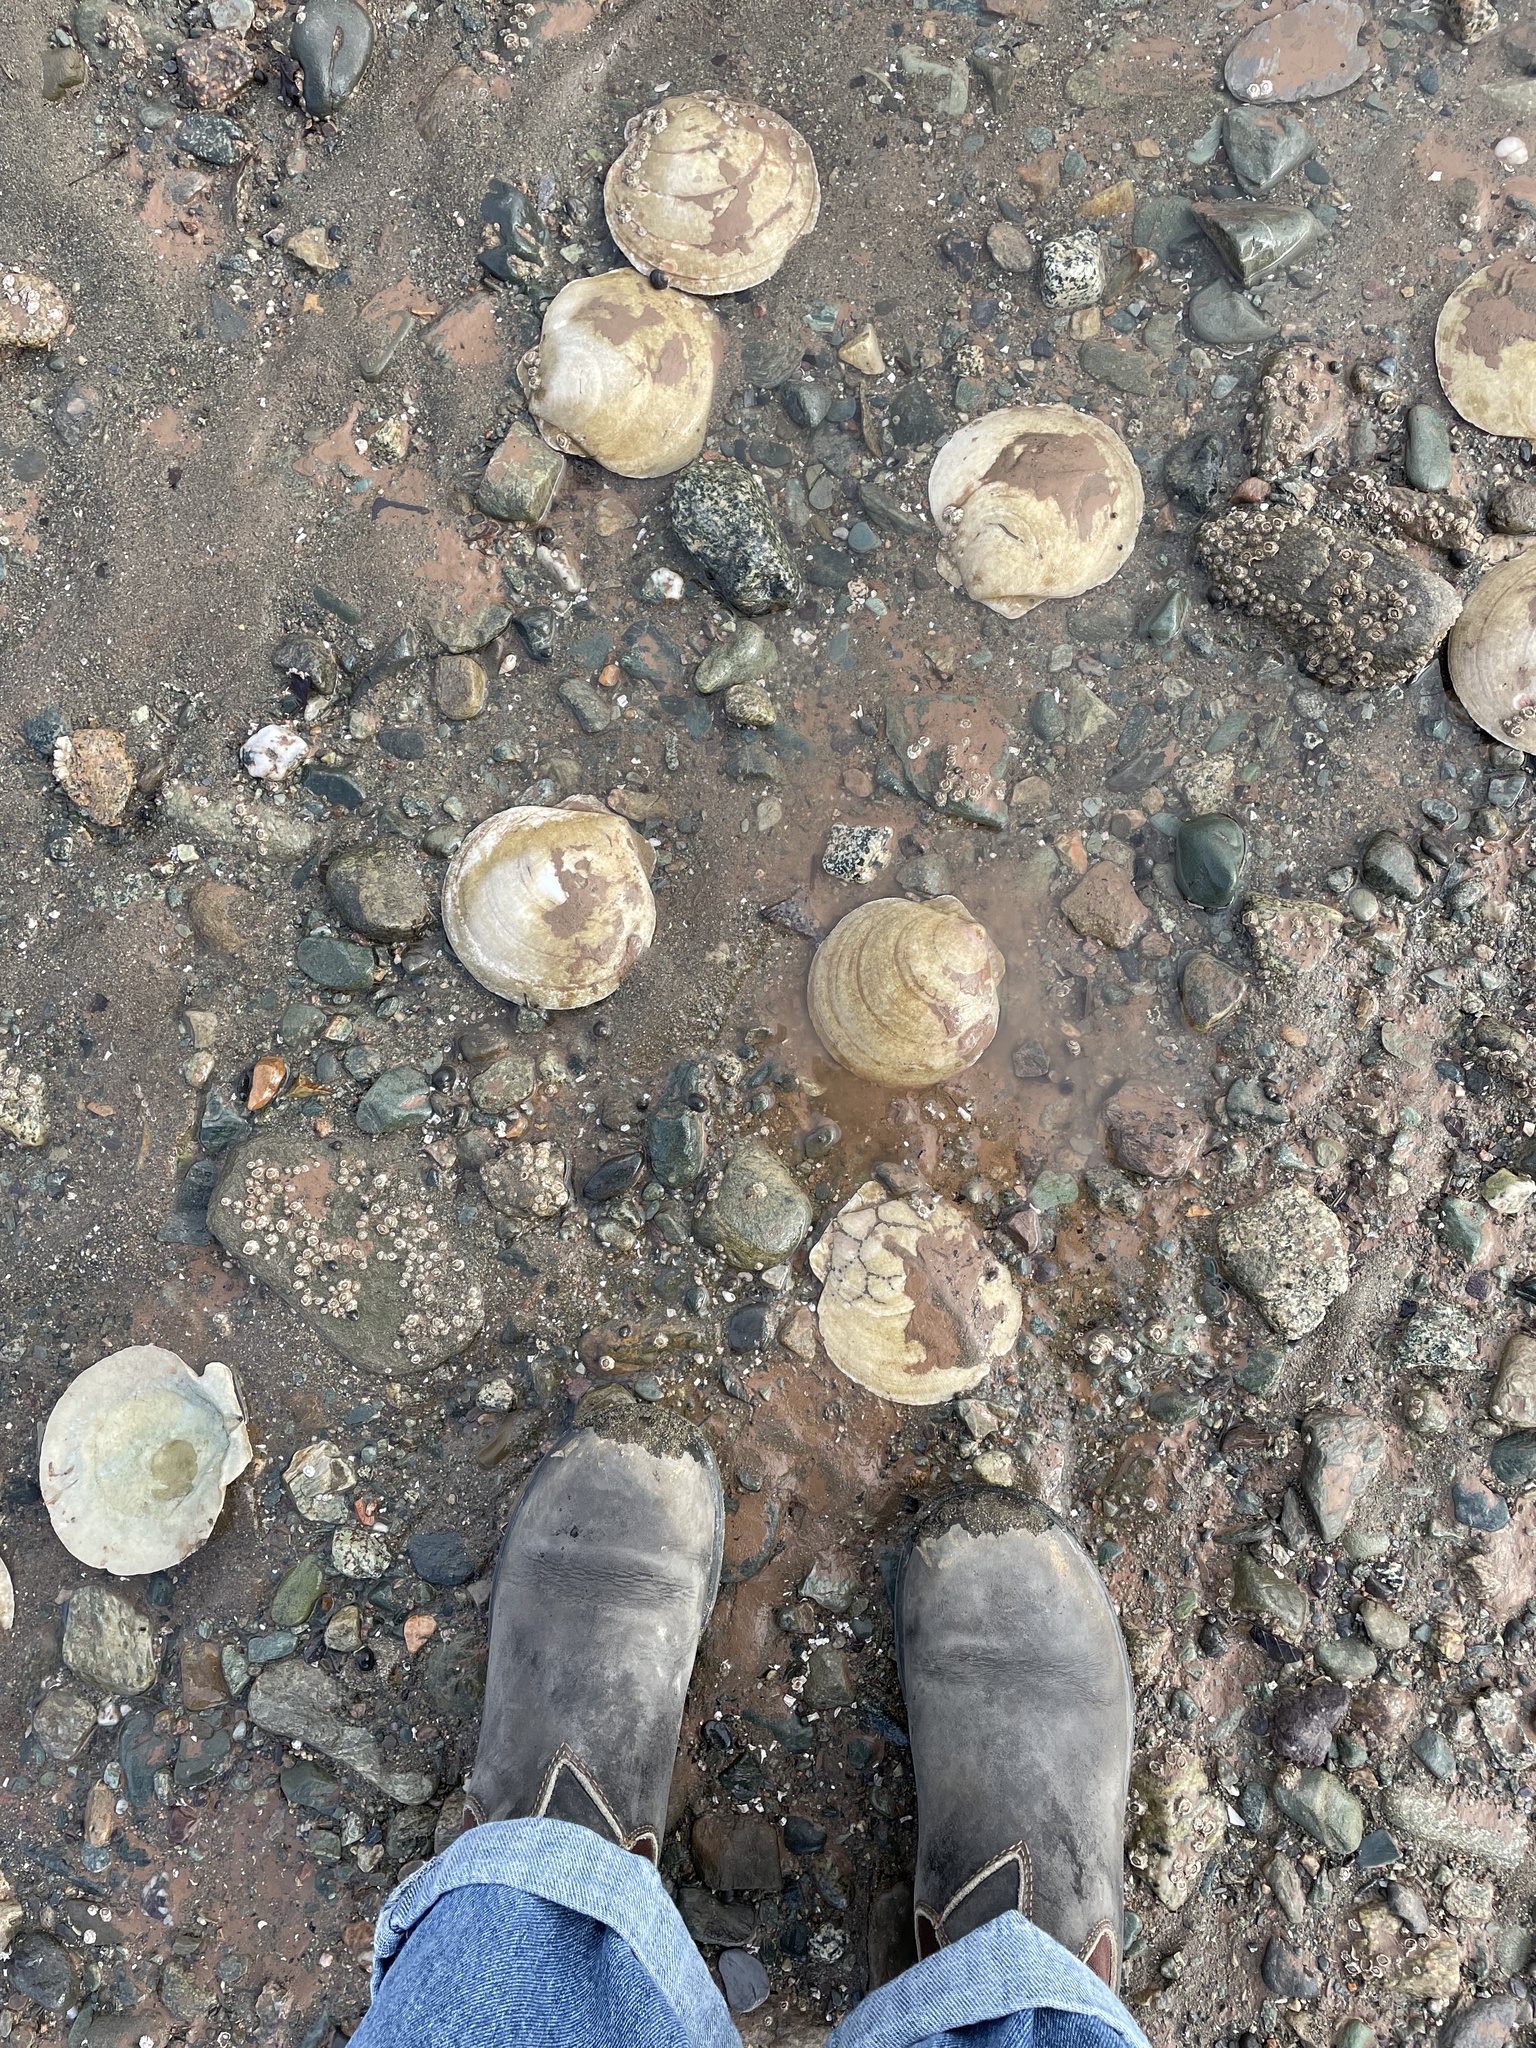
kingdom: Animalia
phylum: Mollusca
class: Bivalvia
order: Pectinida
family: Pectinidae
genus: Placopecten
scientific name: Placopecten magellanicus
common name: American sea scallop
